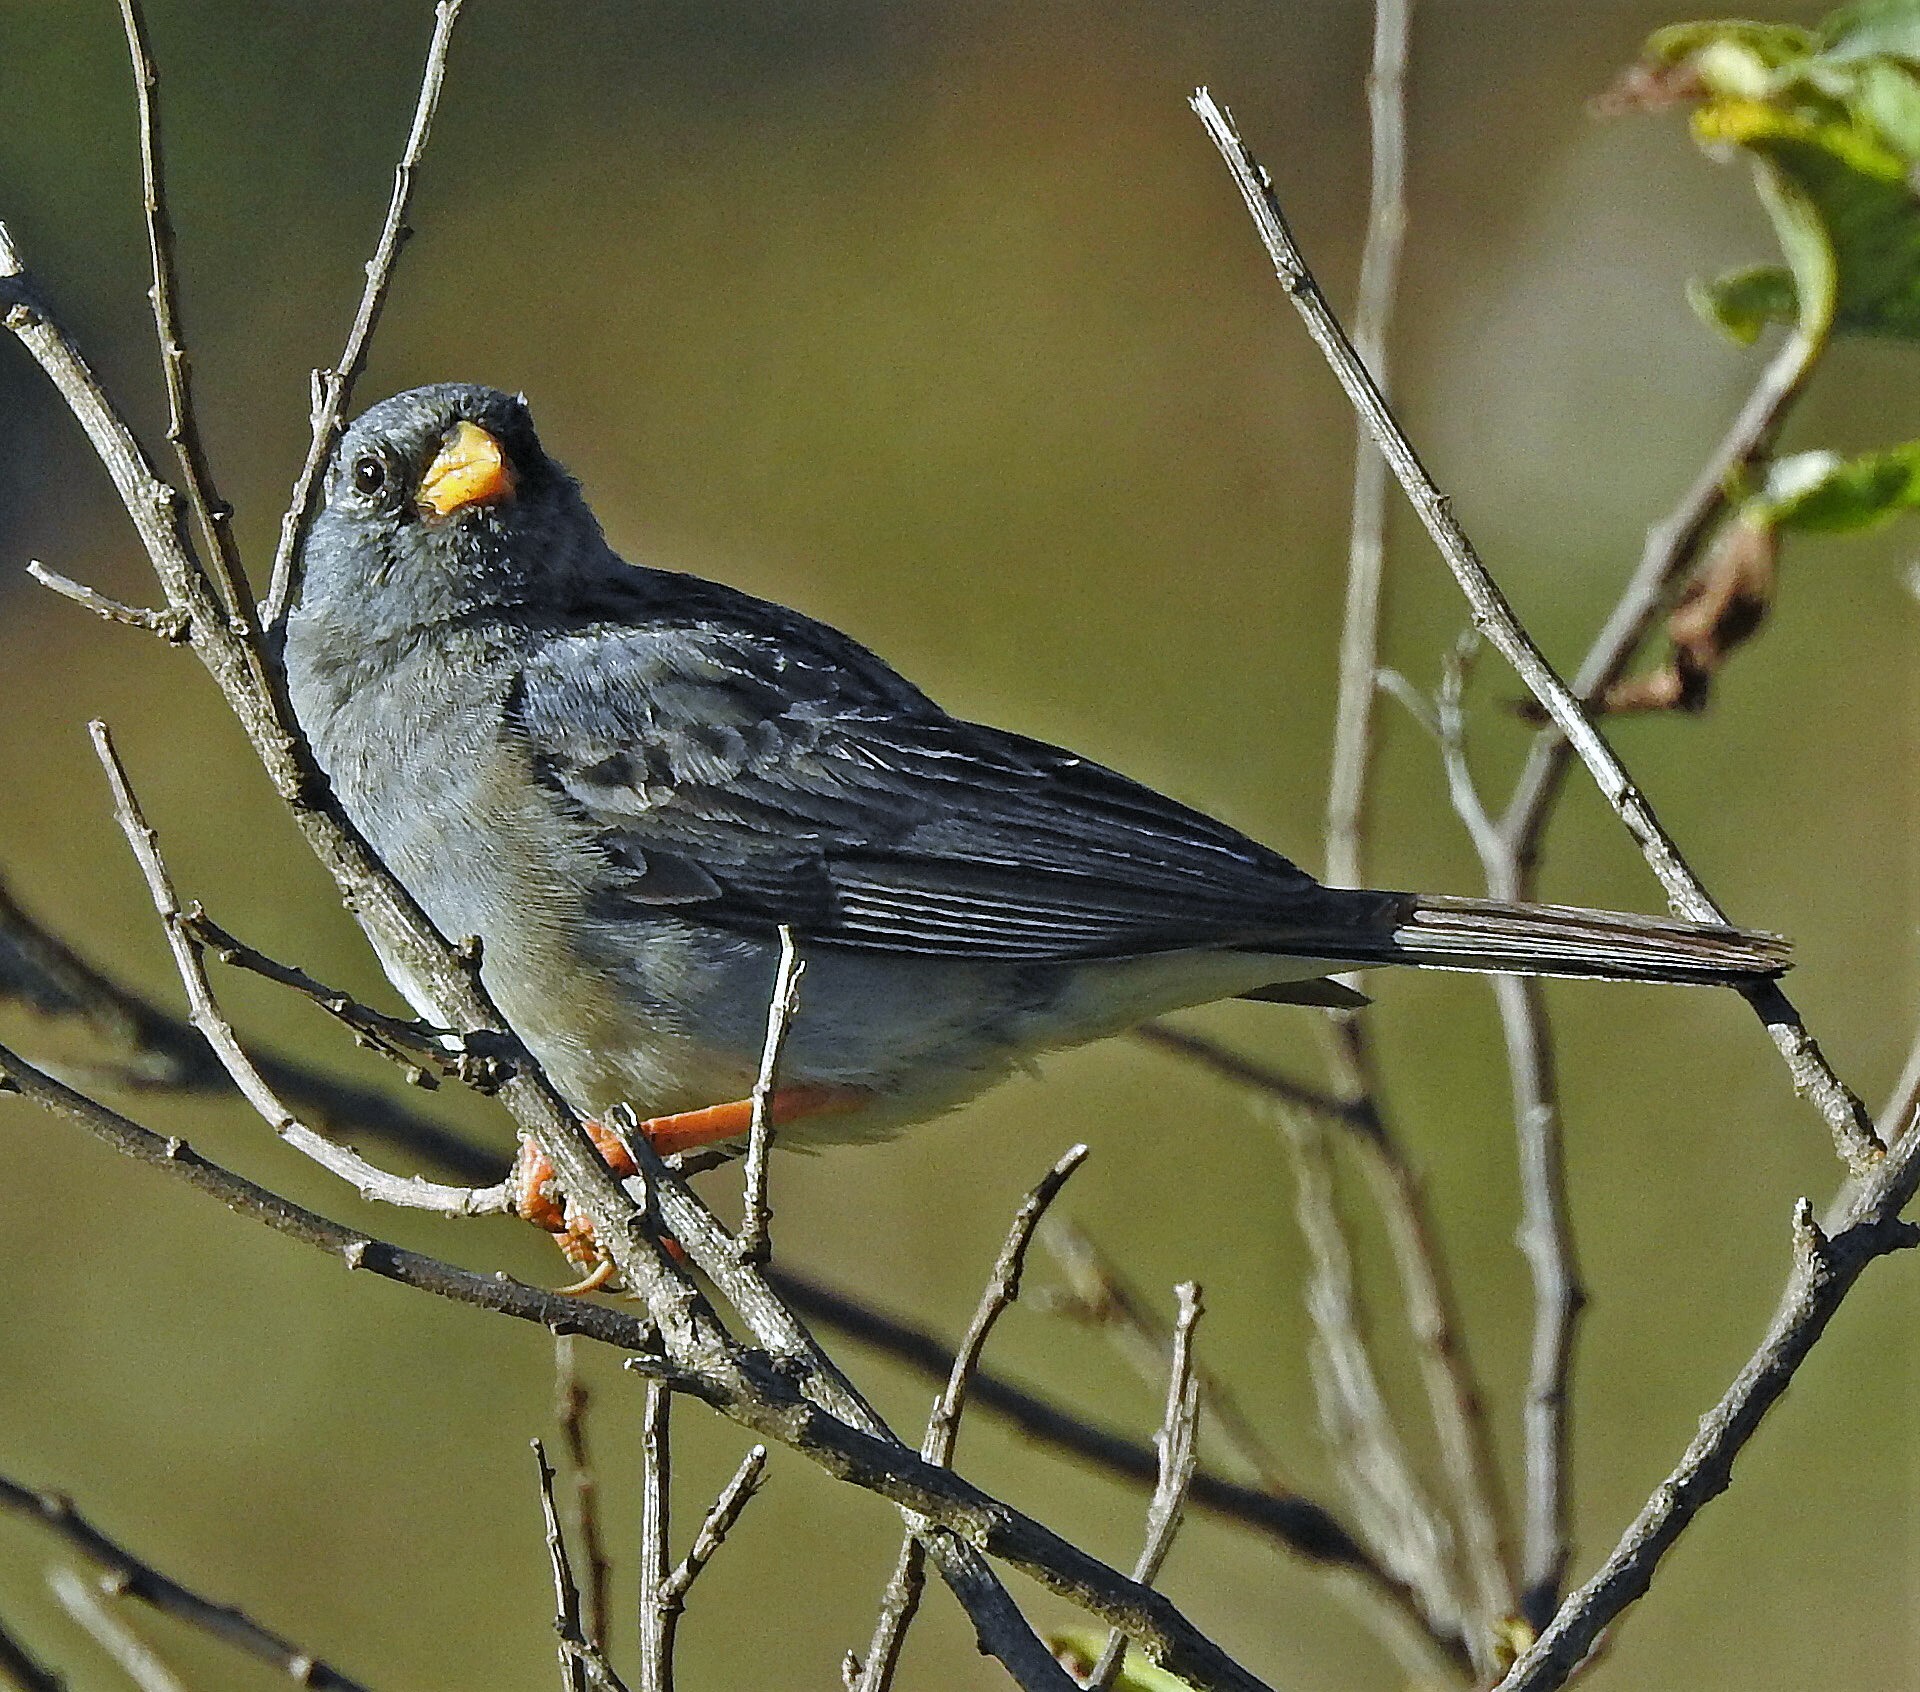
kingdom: Animalia
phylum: Chordata
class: Aves
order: Passeriformes
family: Thraupidae
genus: Porphyrospiza
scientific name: Porphyrospiza alaudina
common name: Band-tailed sierra finch
